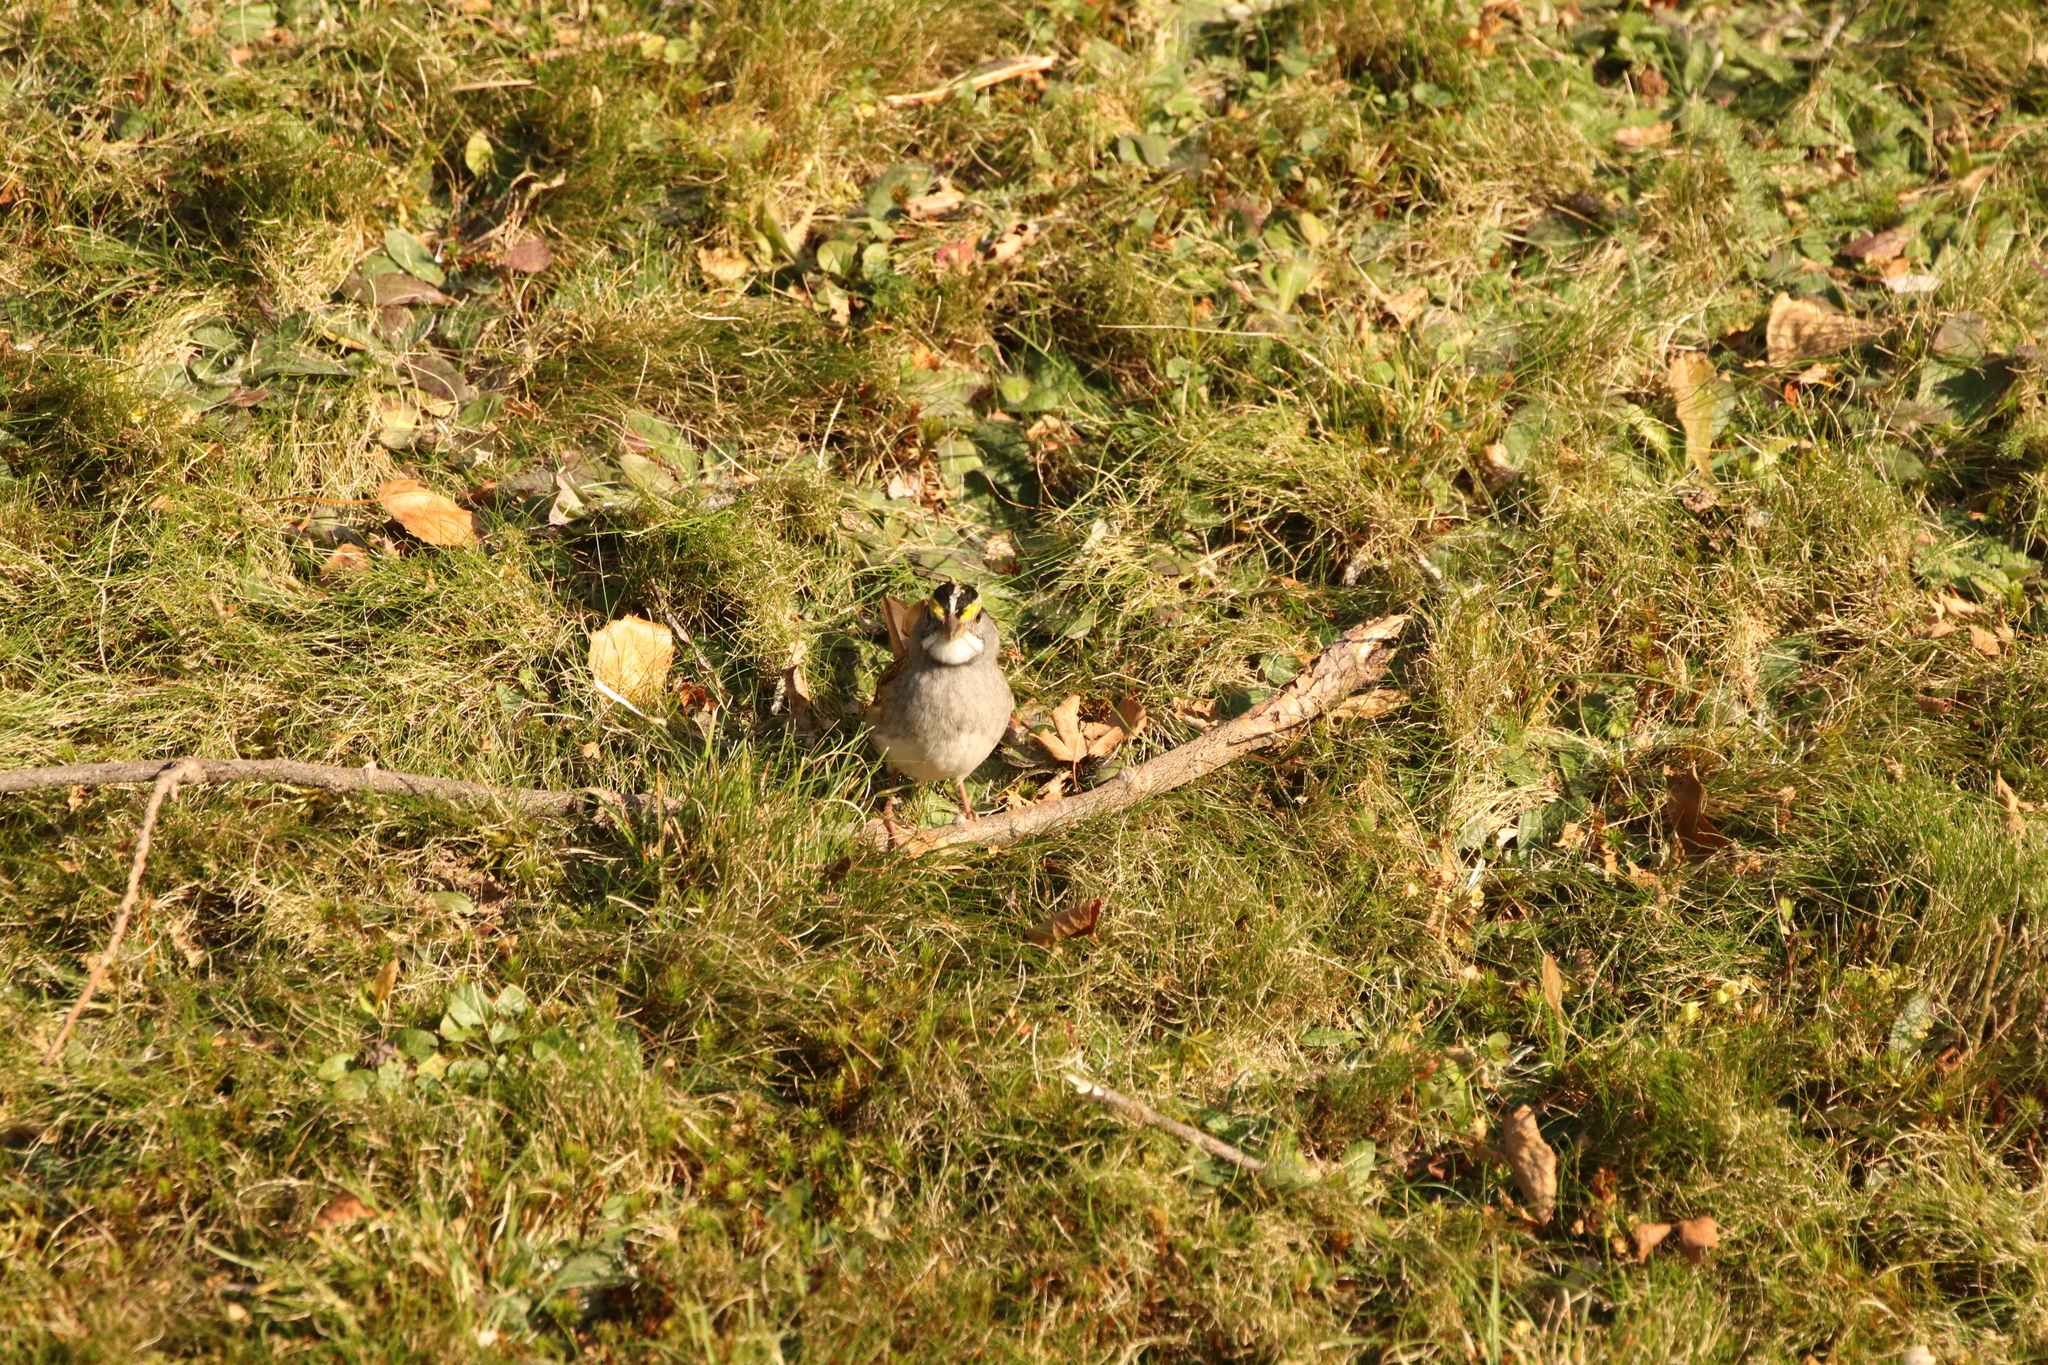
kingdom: Animalia
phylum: Chordata
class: Aves
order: Passeriformes
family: Passerellidae
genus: Zonotrichia
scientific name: Zonotrichia albicollis
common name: White-throated sparrow
